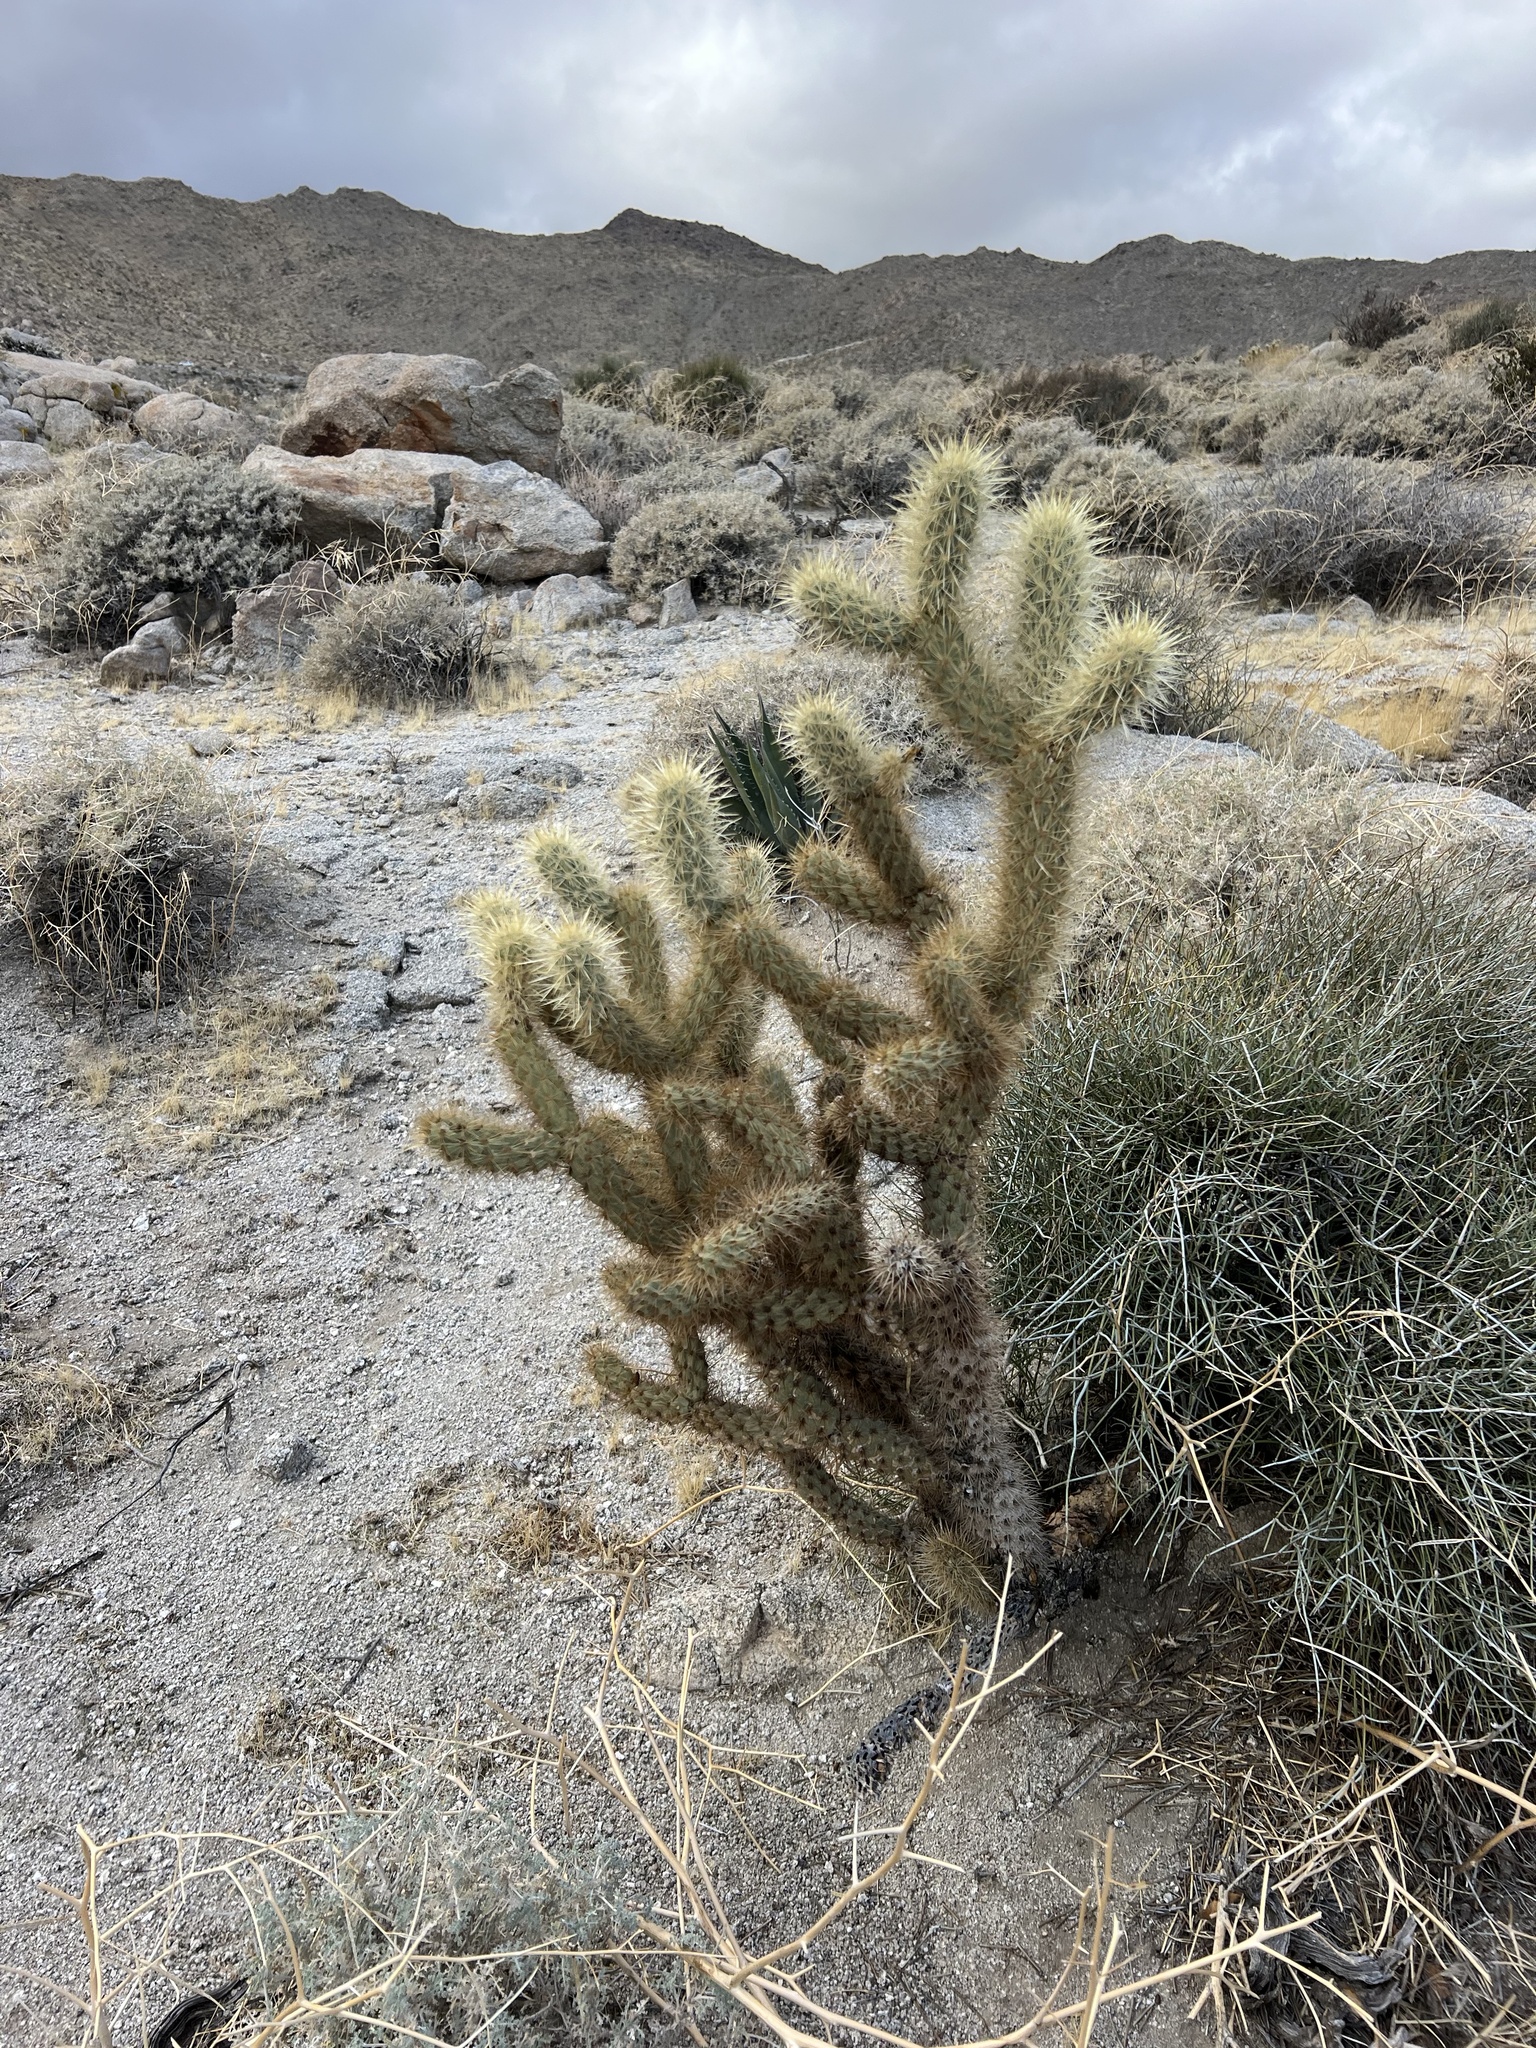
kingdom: Plantae
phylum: Tracheophyta
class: Magnoliopsida
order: Caryophyllales
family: Cactaceae
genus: Cylindropuntia
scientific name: Cylindropuntia ganderi
